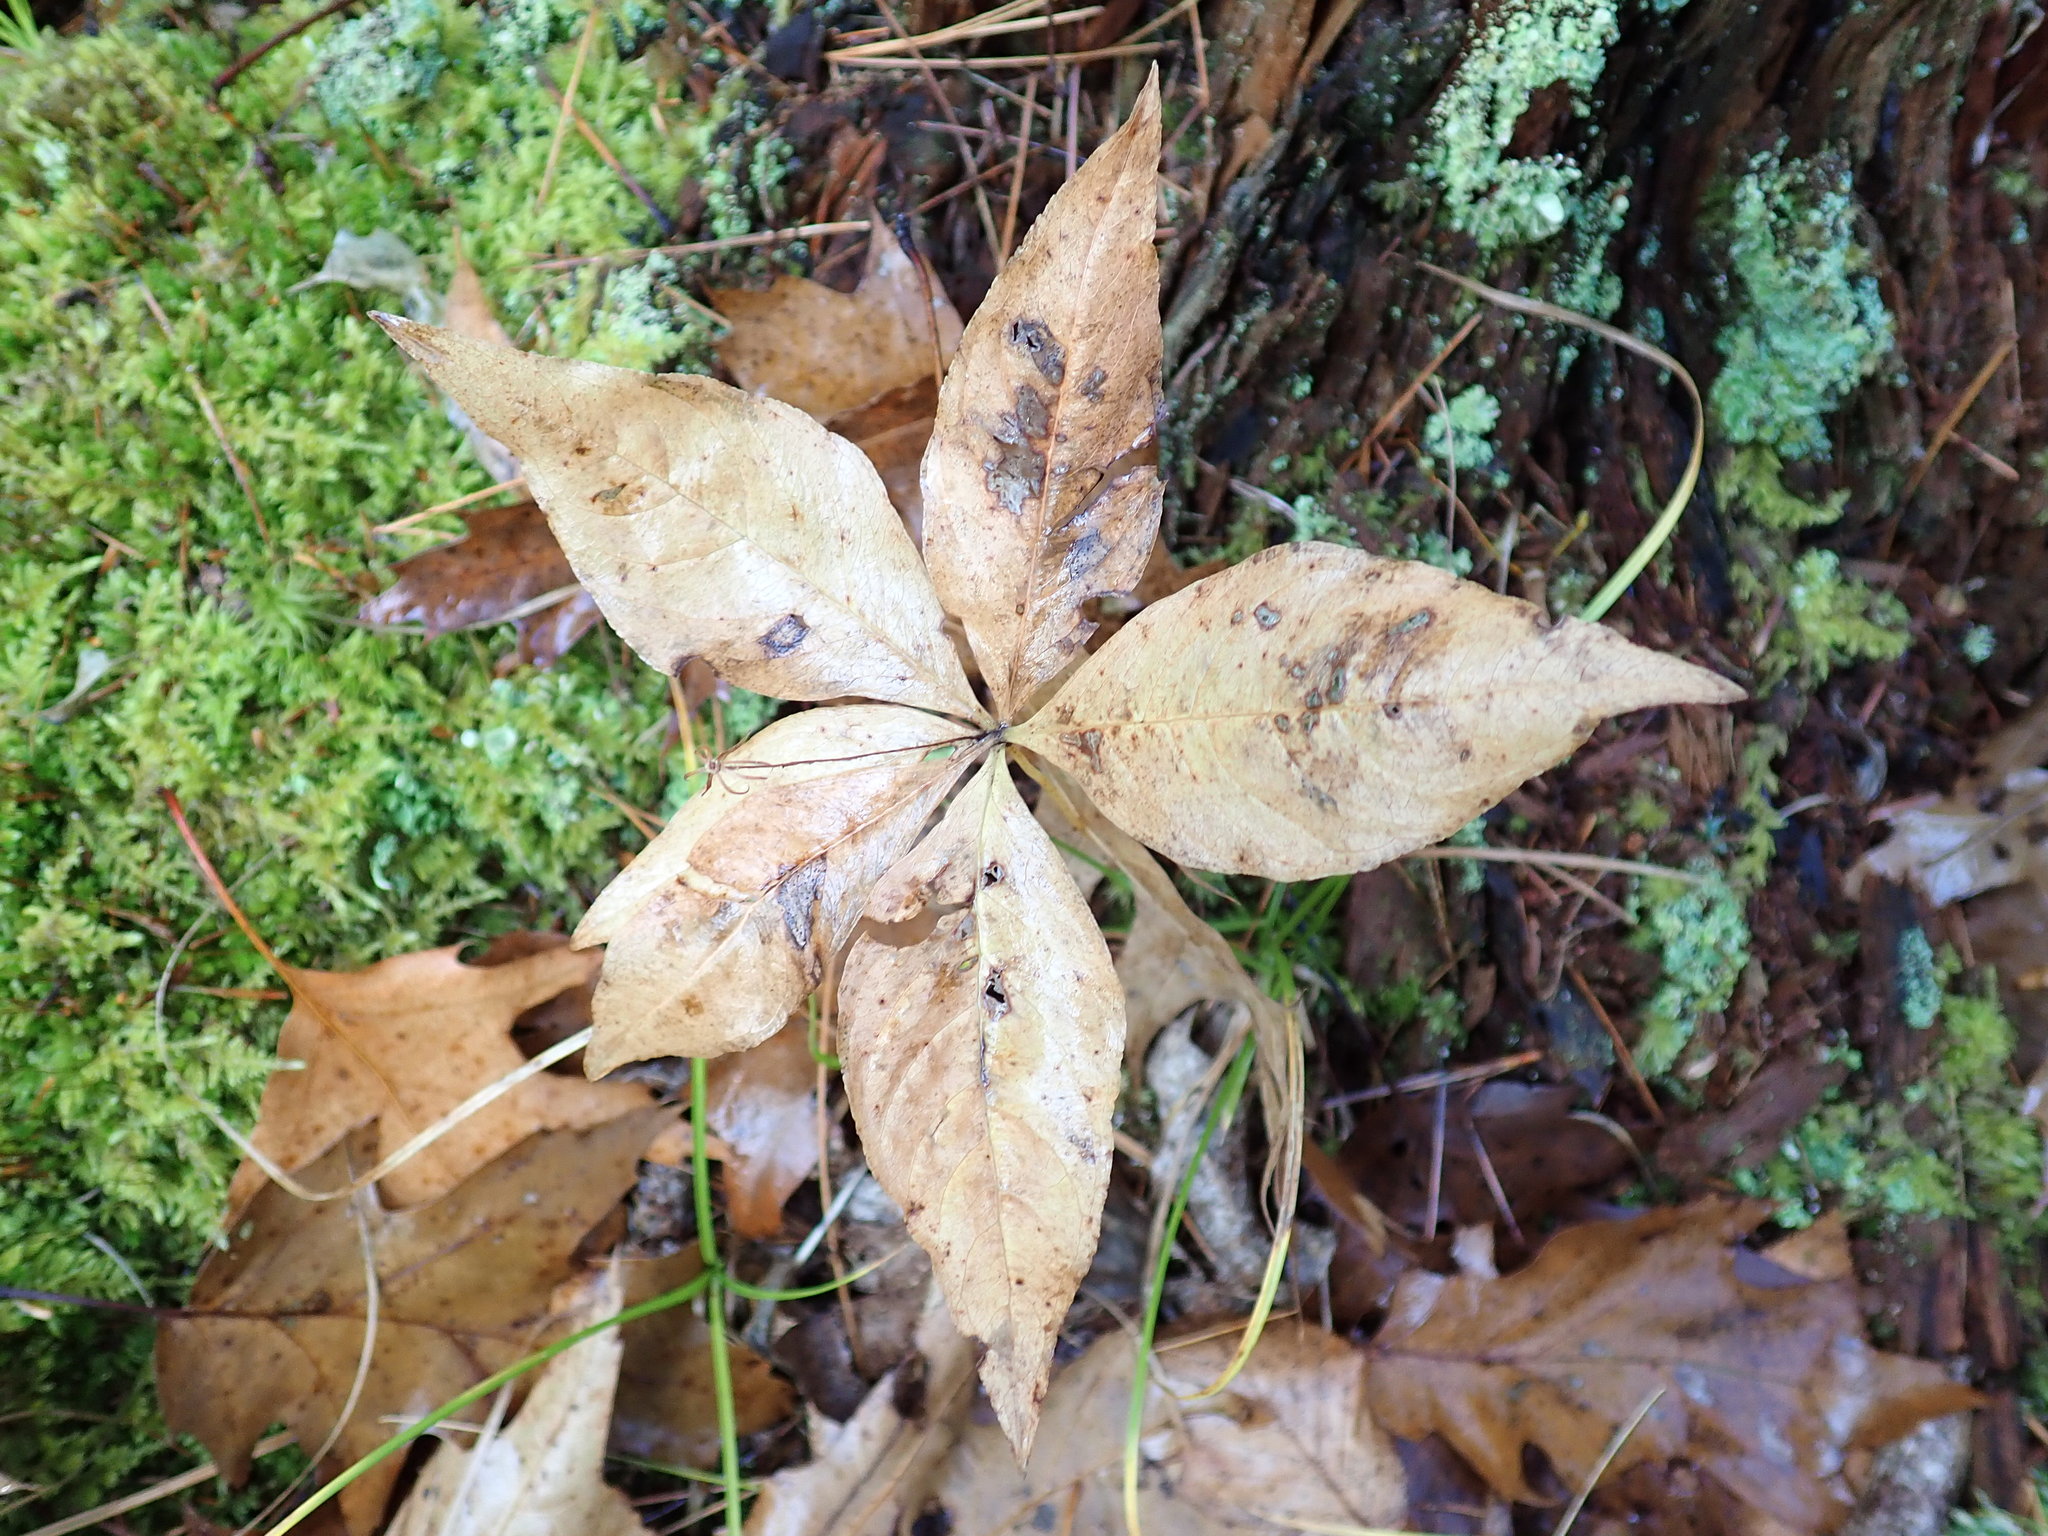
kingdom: Plantae
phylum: Tracheophyta
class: Magnoliopsida
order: Ericales
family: Primulaceae
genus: Lysimachia
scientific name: Lysimachia borealis
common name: American starflower
